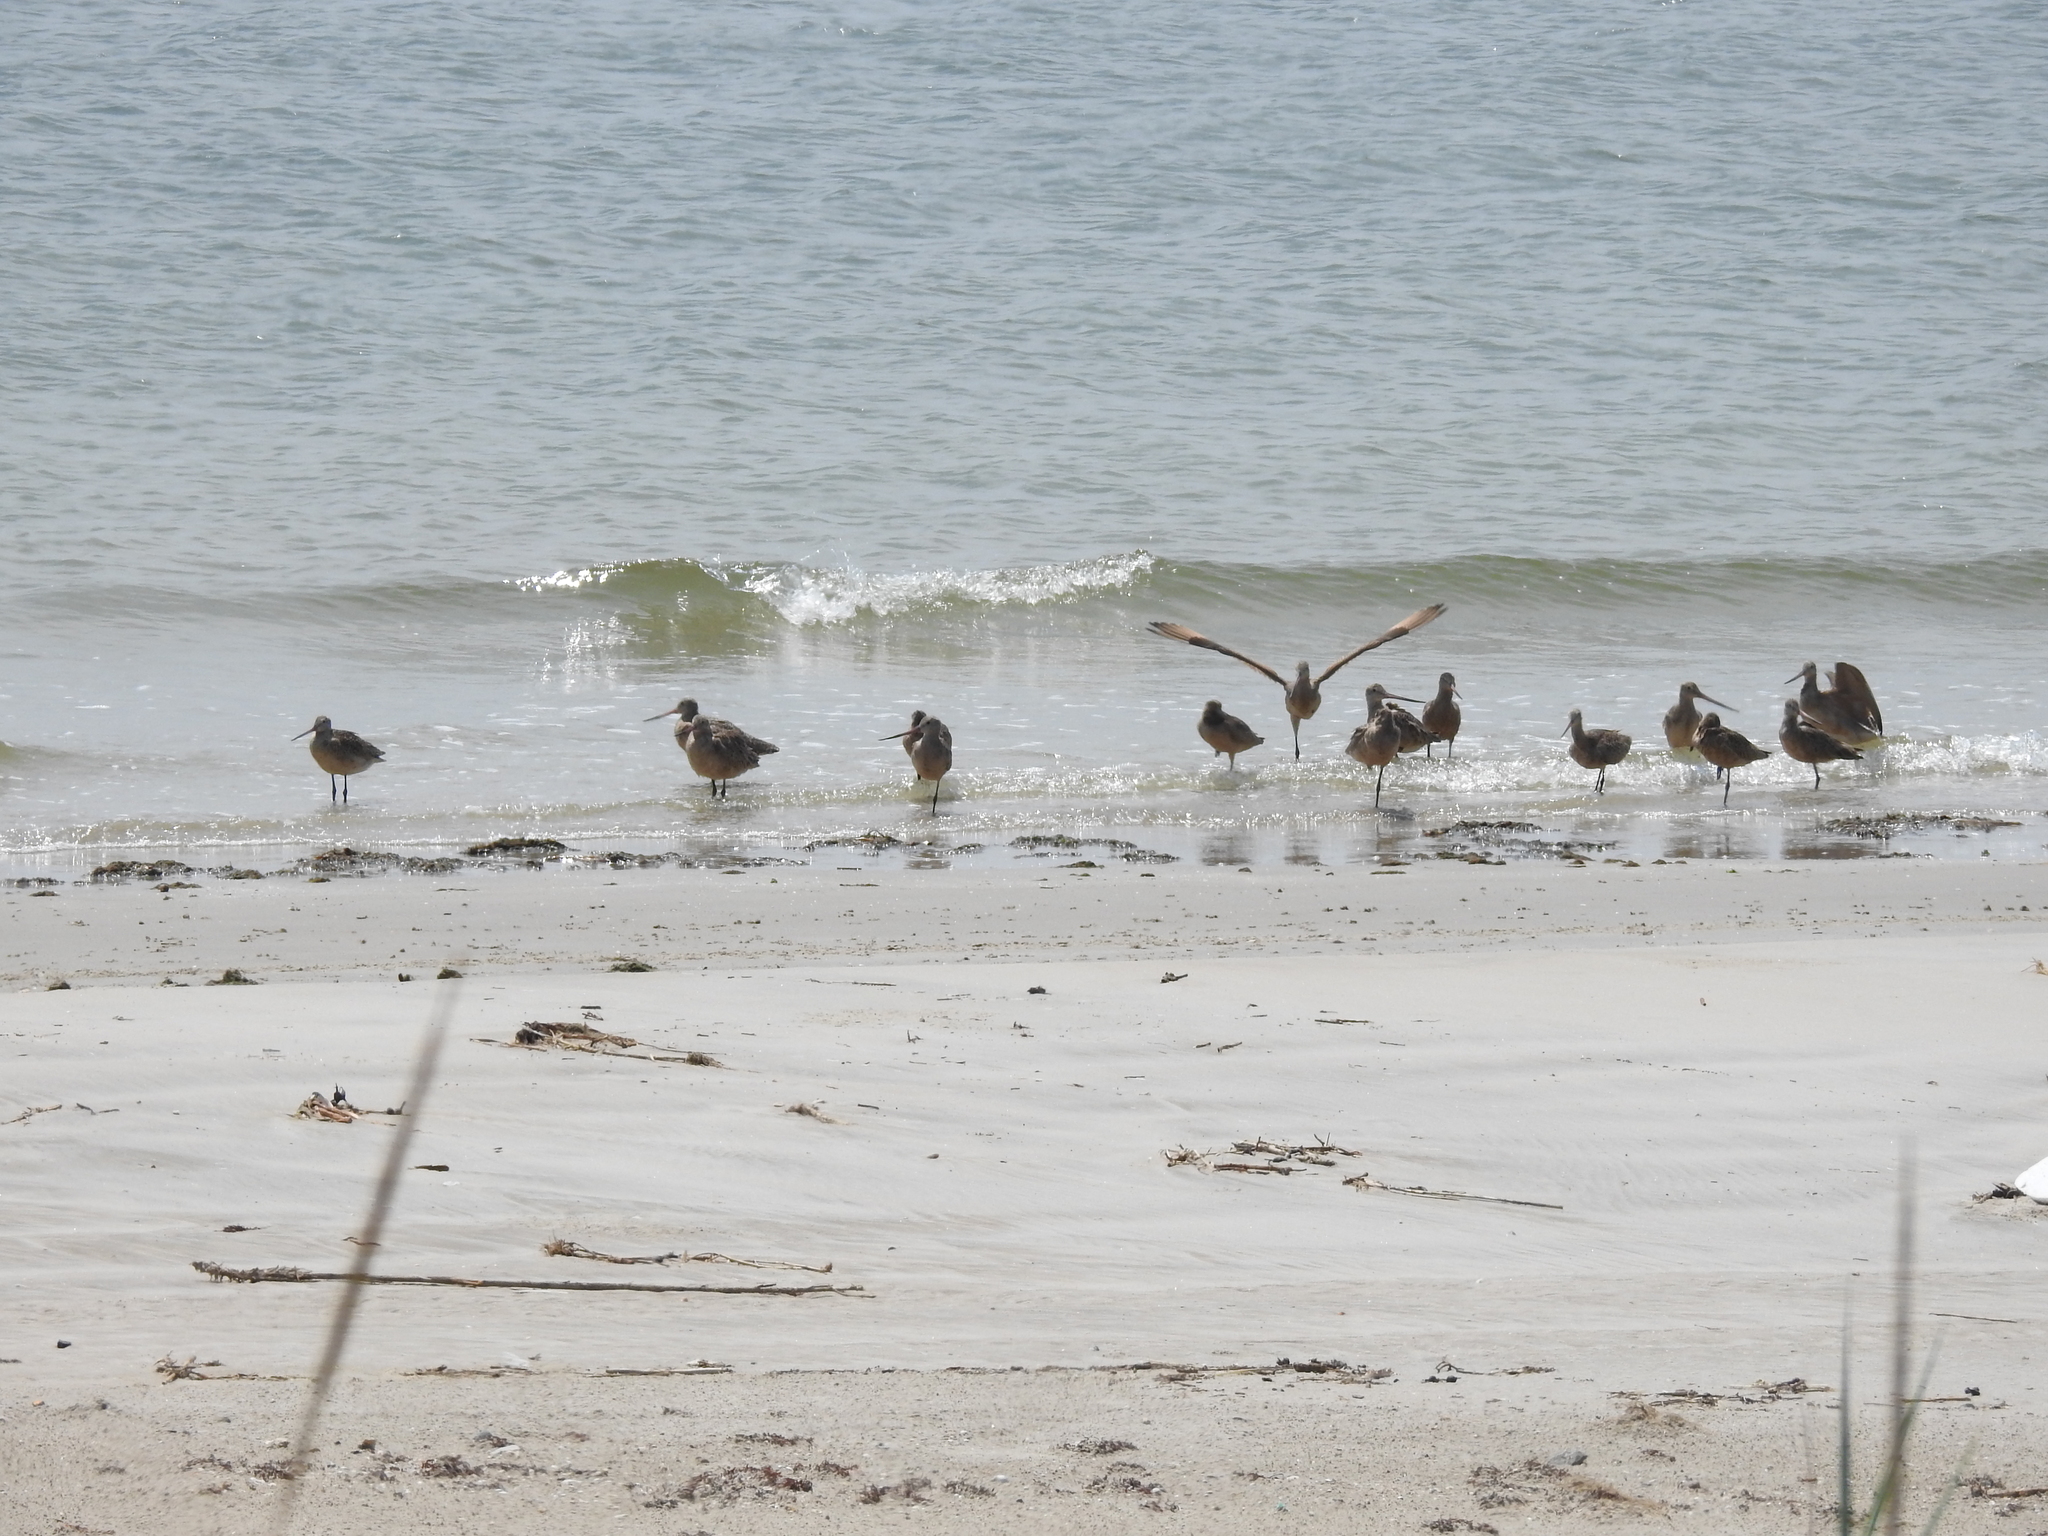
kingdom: Animalia
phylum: Chordata
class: Aves
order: Charadriiformes
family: Scolopacidae
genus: Limosa
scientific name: Limosa fedoa
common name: Marbled godwit
